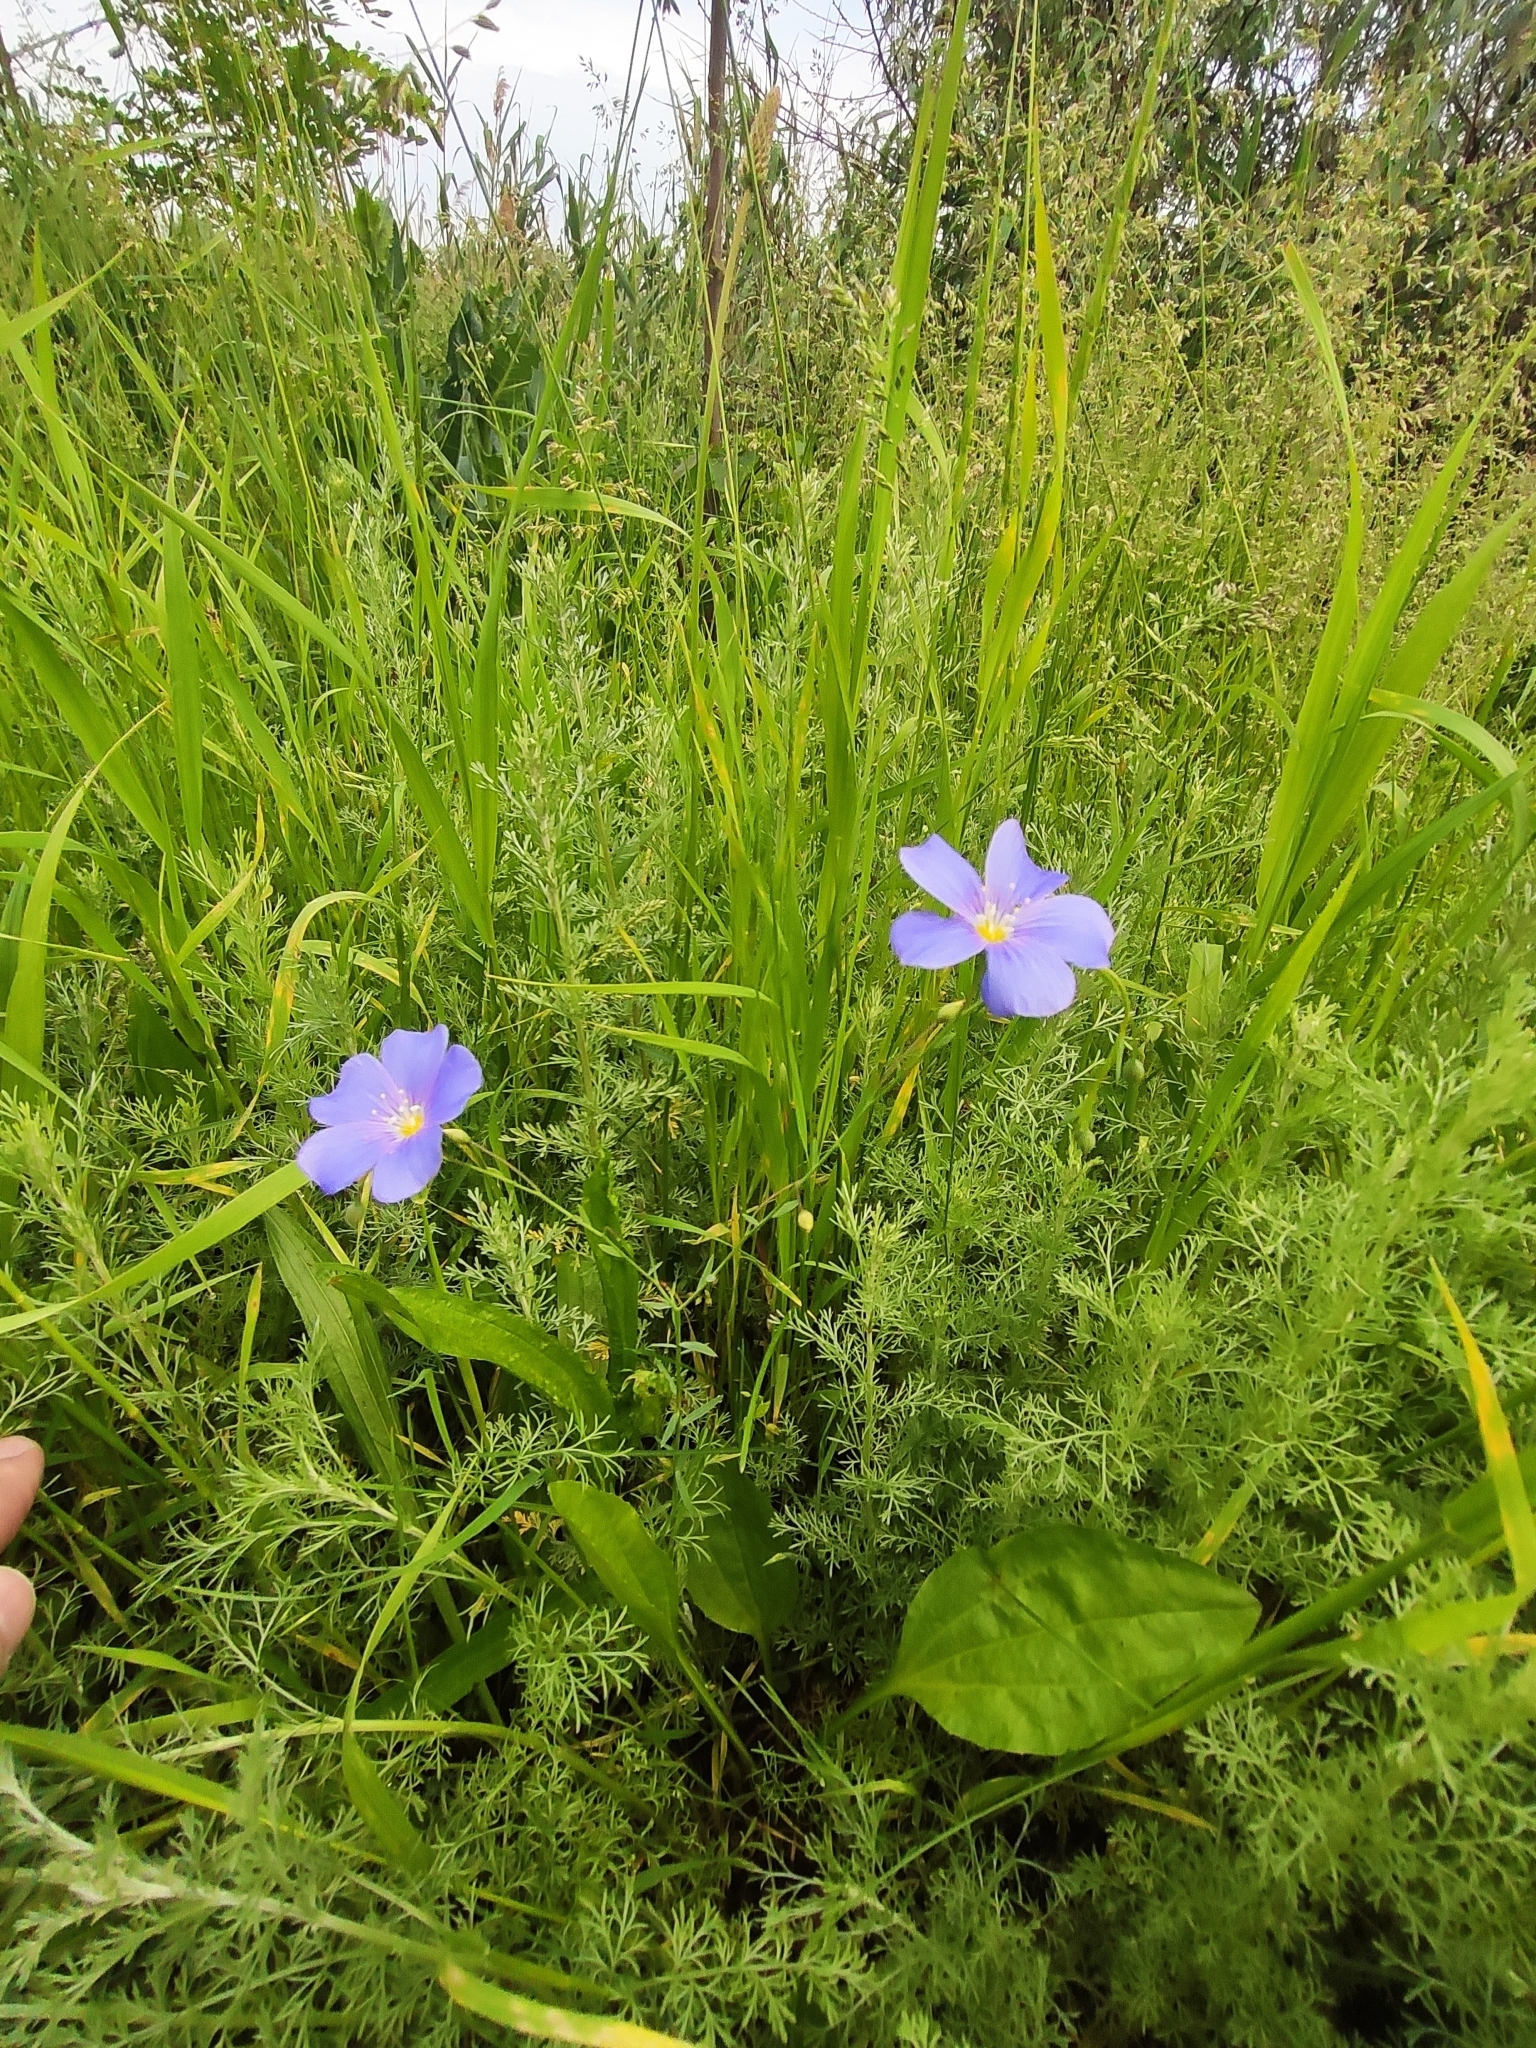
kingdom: Plantae
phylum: Tracheophyta
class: Magnoliopsida
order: Malpighiales
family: Linaceae
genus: Linum
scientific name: Linum austriacum
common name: Austrian flax
